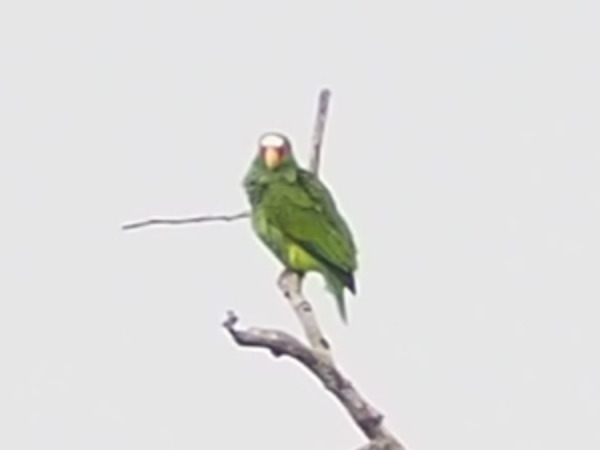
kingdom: Animalia
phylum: Chordata
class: Aves
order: Psittaciformes
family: Psittacidae
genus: Amazona
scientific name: Amazona albifrons
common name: White-fronted amazon
